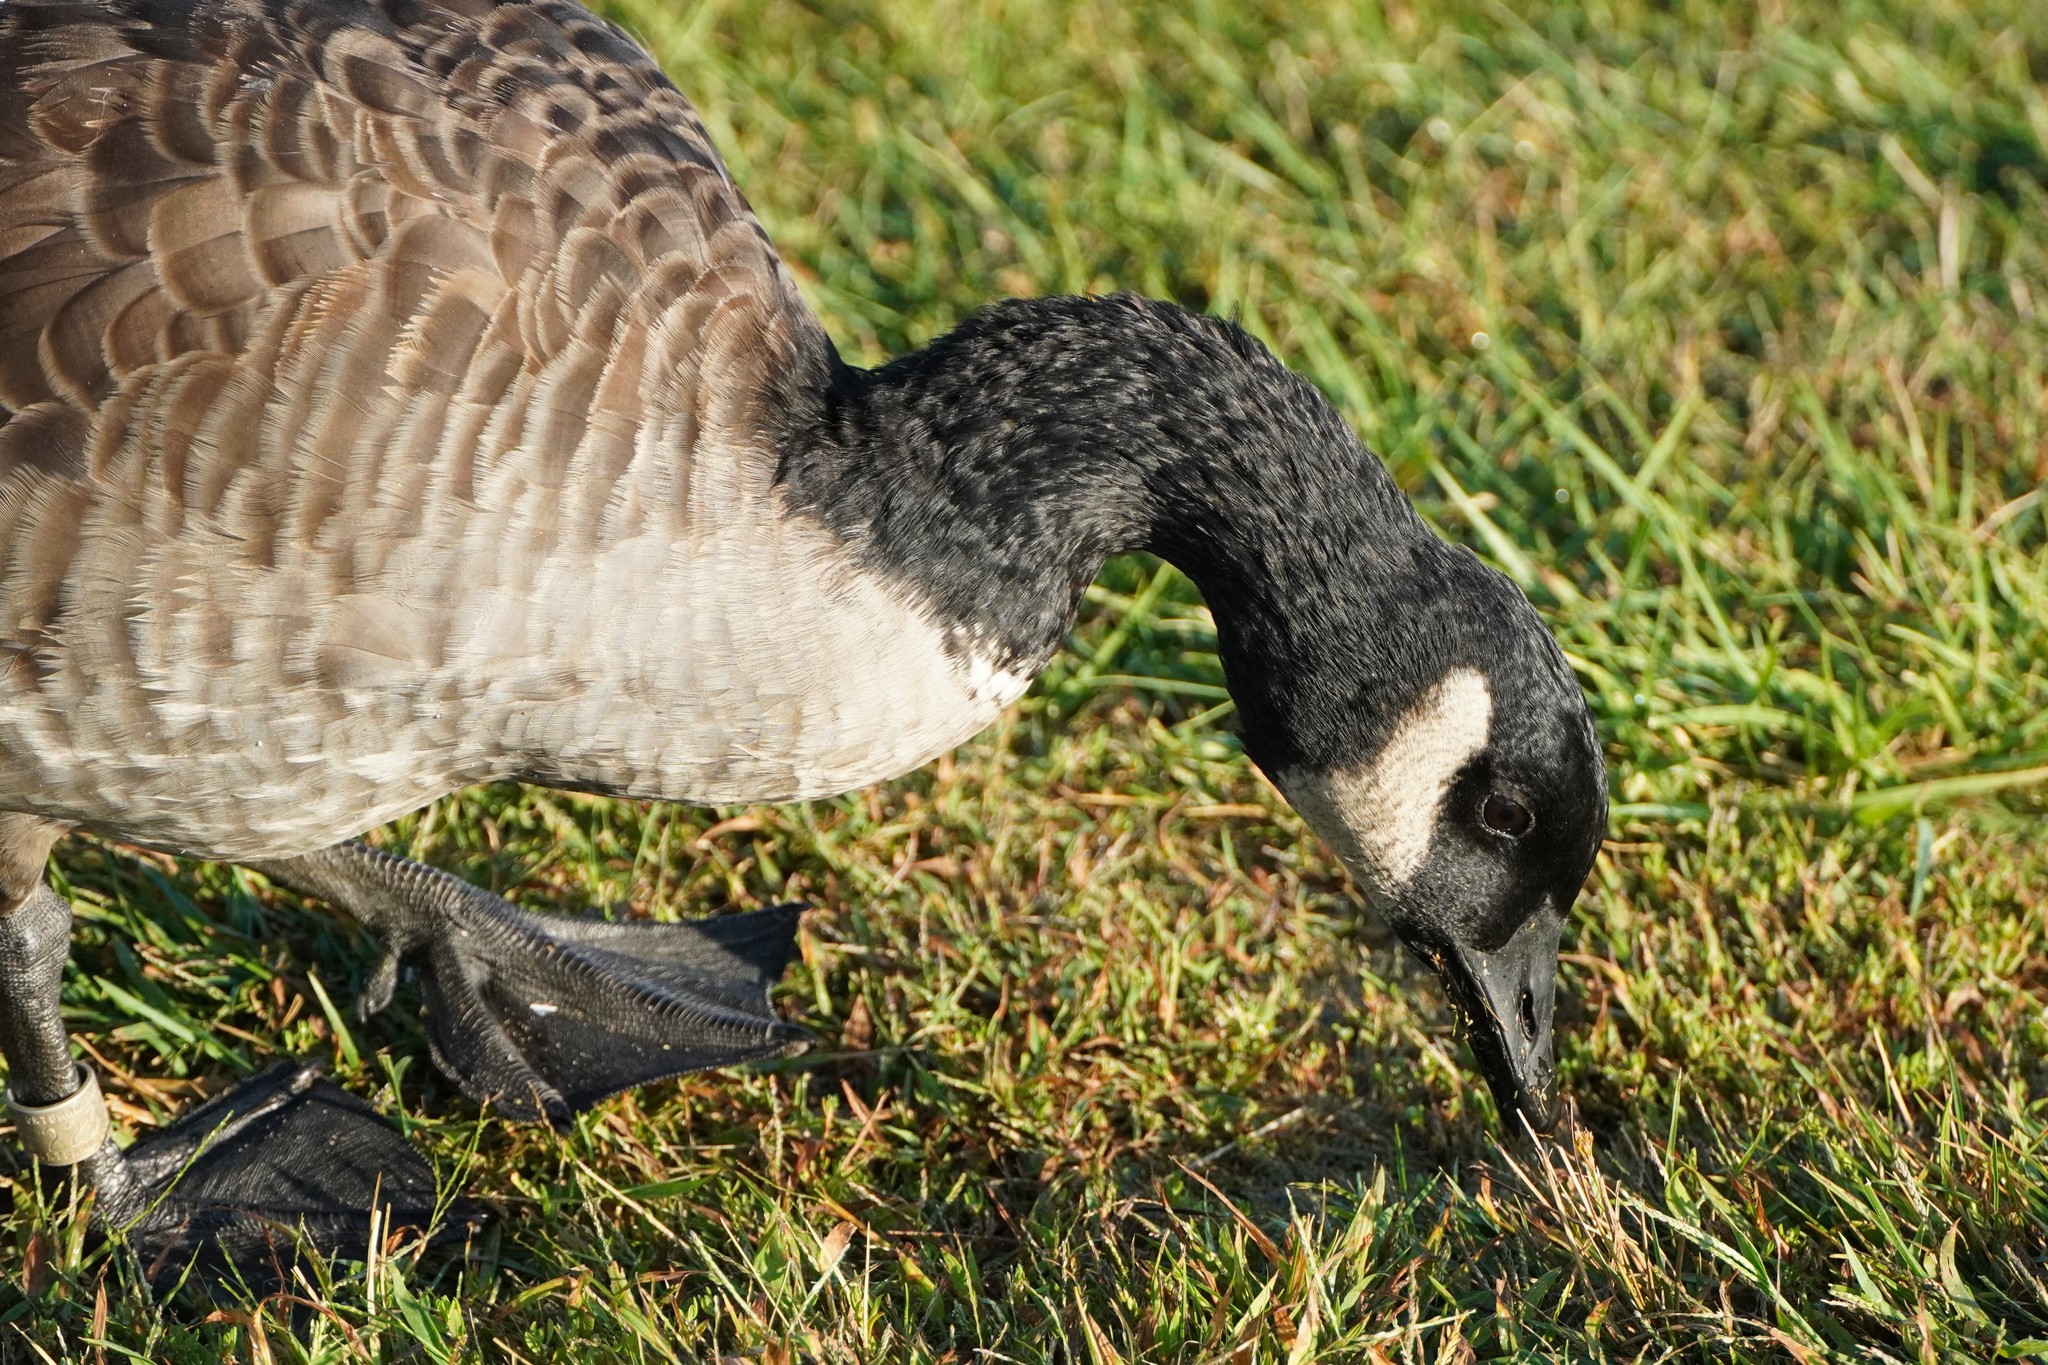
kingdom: Animalia
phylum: Chordata
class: Aves
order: Anseriformes
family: Anatidae
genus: Branta
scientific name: Branta canadensis
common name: Canada goose
